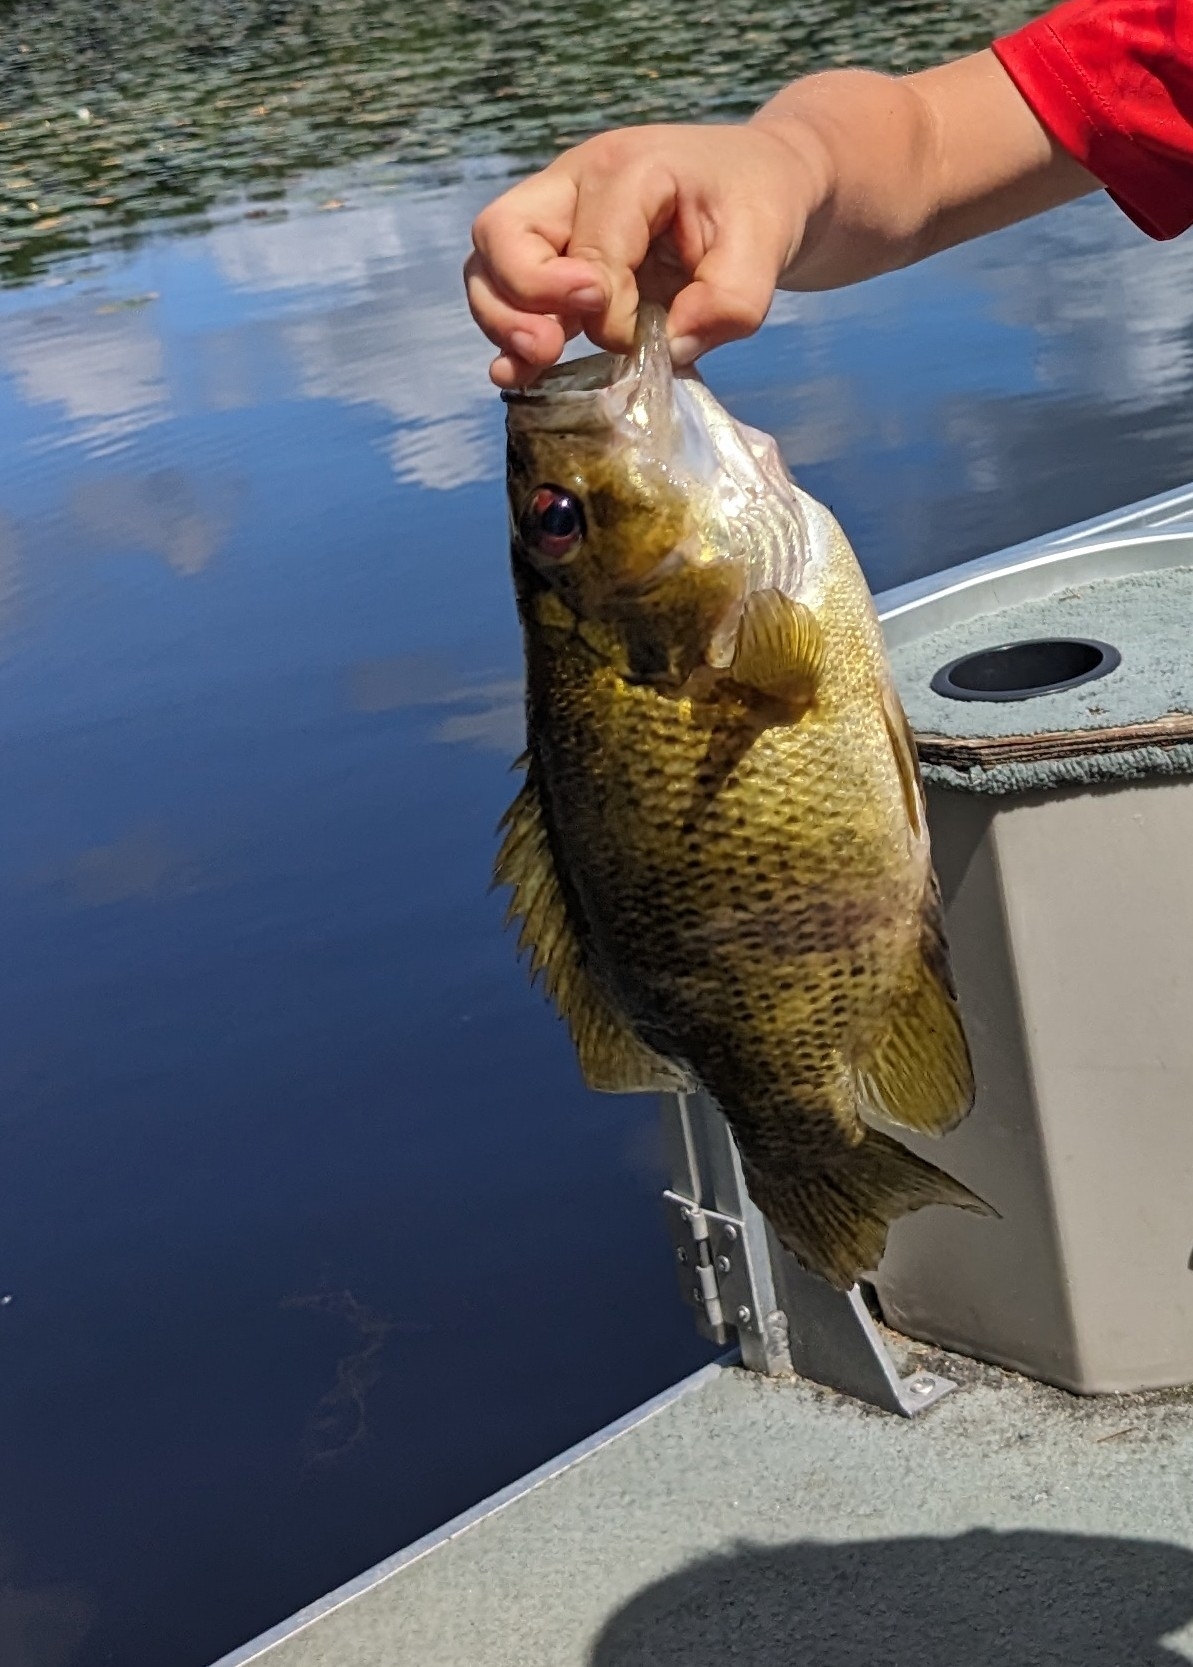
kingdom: Animalia
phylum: Chordata
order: Perciformes
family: Centrarchidae
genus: Ambloplites
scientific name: Ambloplites rupestris
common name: Rock bass
